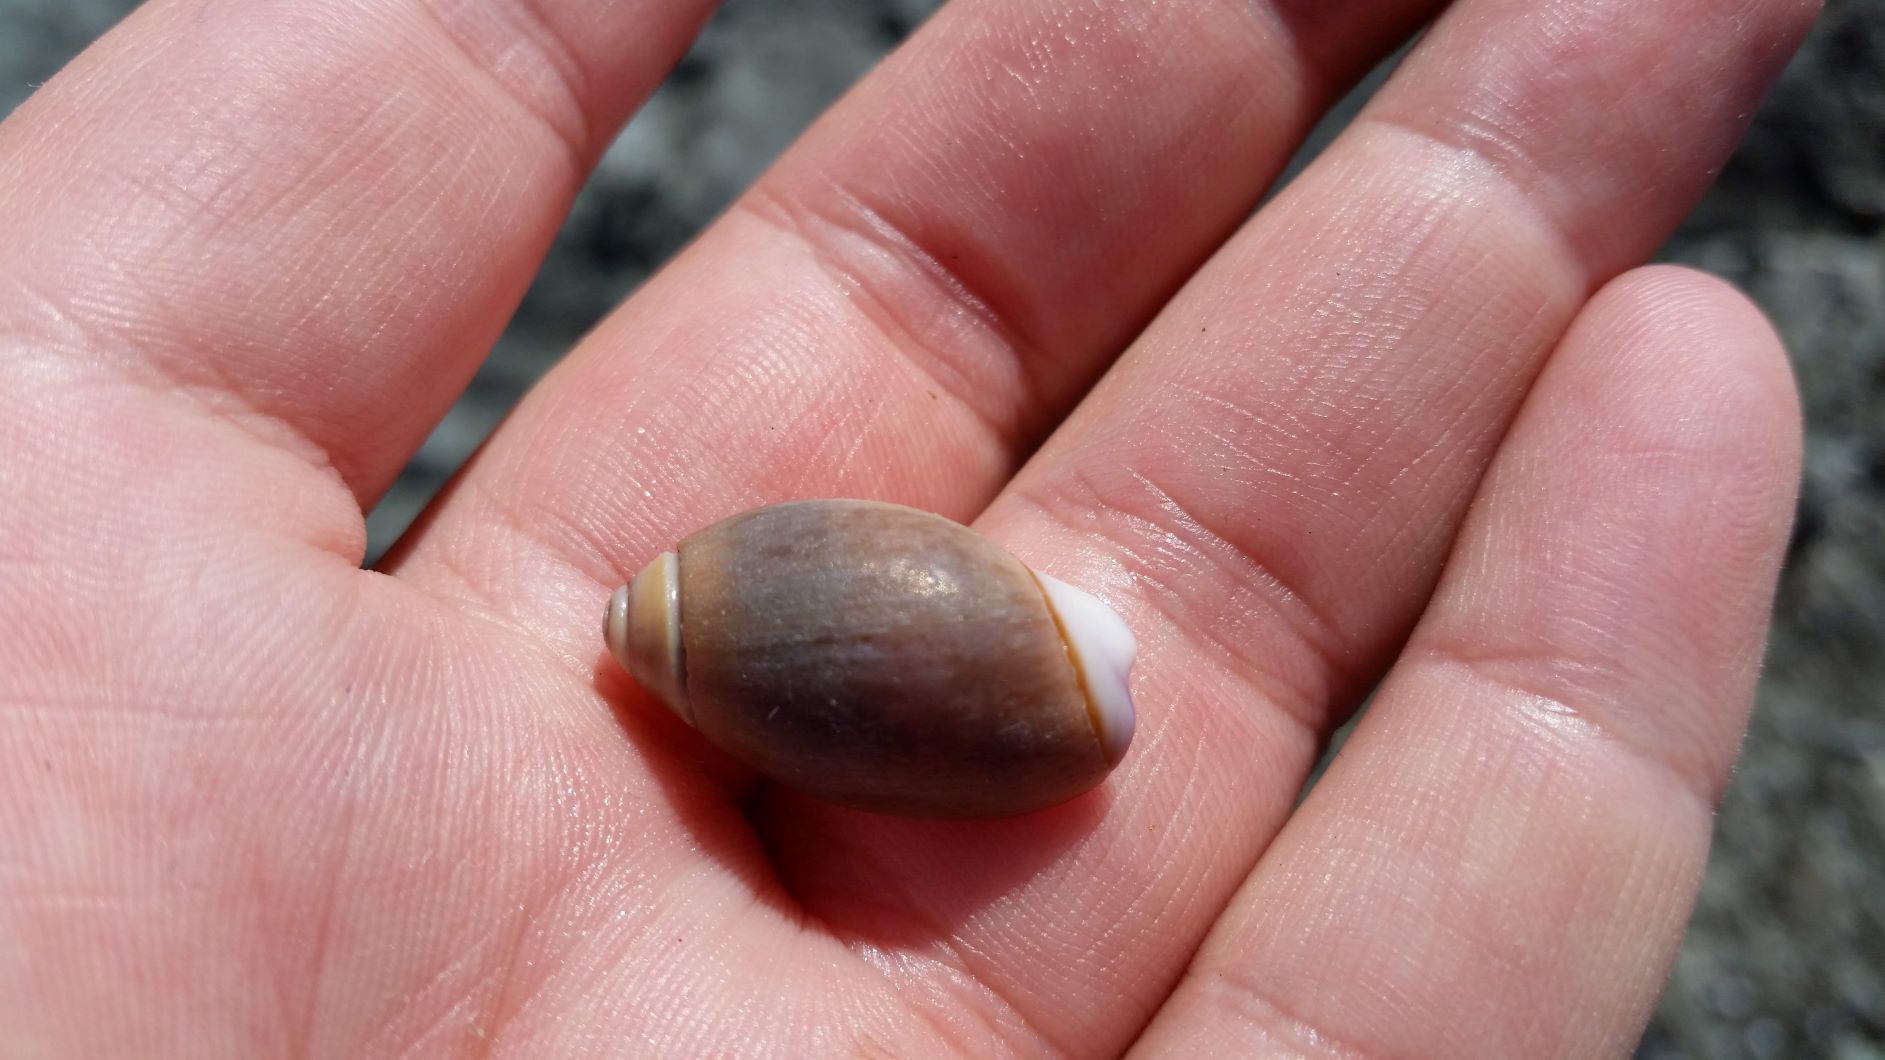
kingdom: Animalia
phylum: Mollusca
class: Gastropoda
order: Neogastropoda
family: Olividae
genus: Callianax
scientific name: Callianax biplicata
